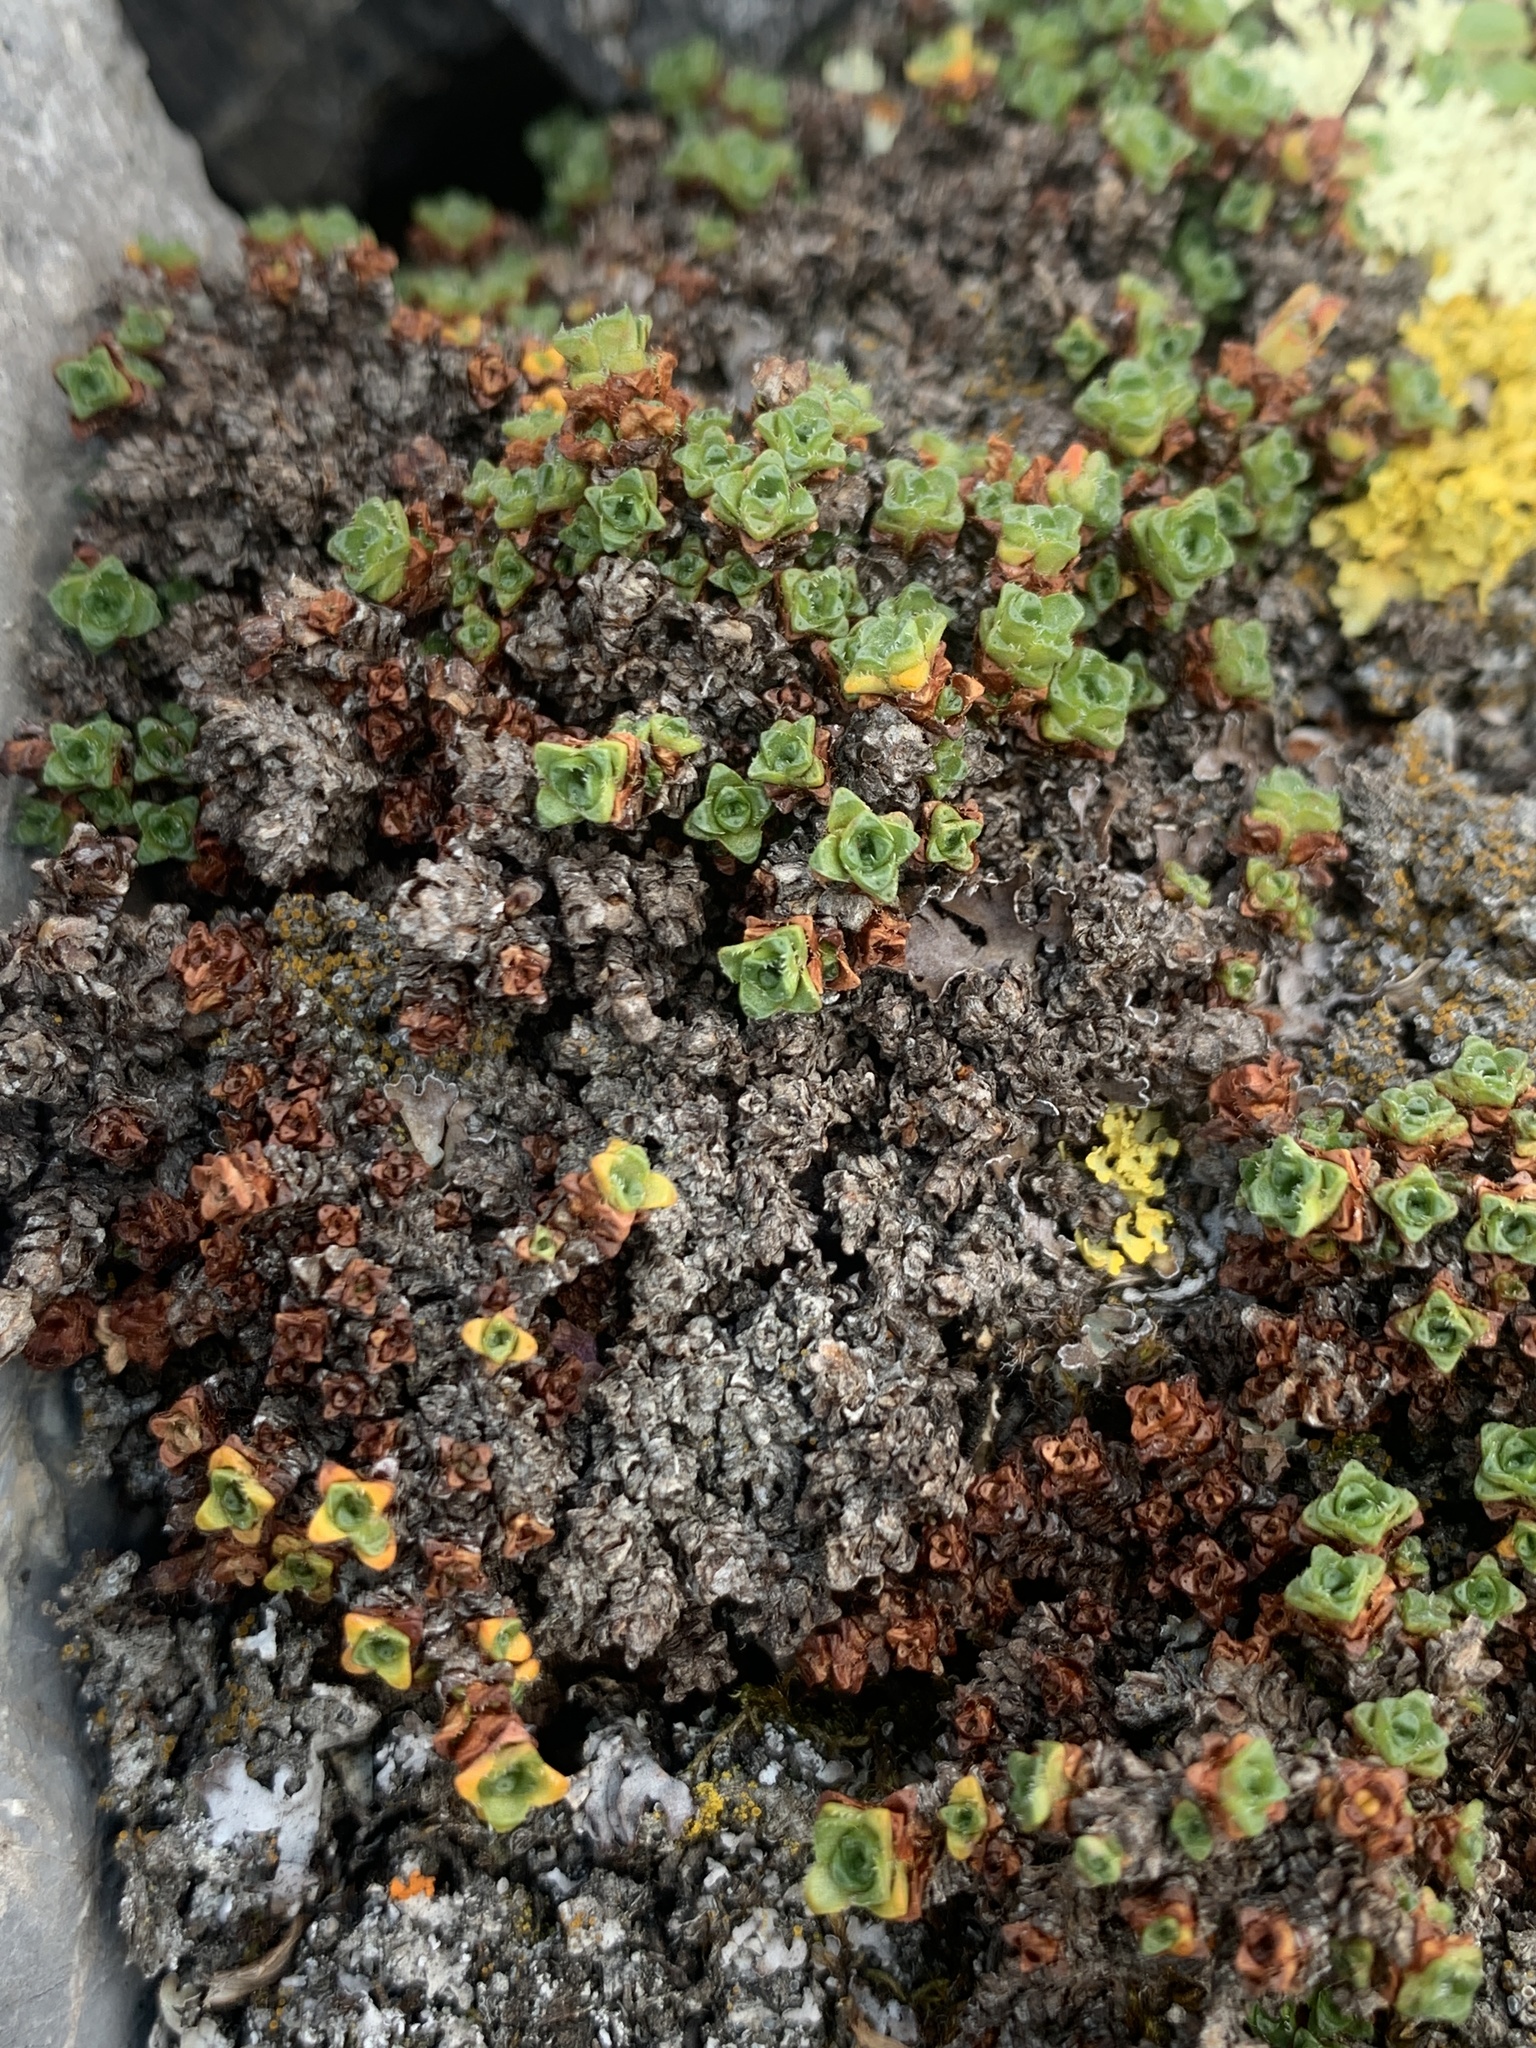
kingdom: Plantae
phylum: Tracheophyta
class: Magnoliopsida
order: Saxifragales
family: Saxifragaceae
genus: Saxifraga
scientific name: Saxifraga oppositifolia
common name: Purple saxifrage
